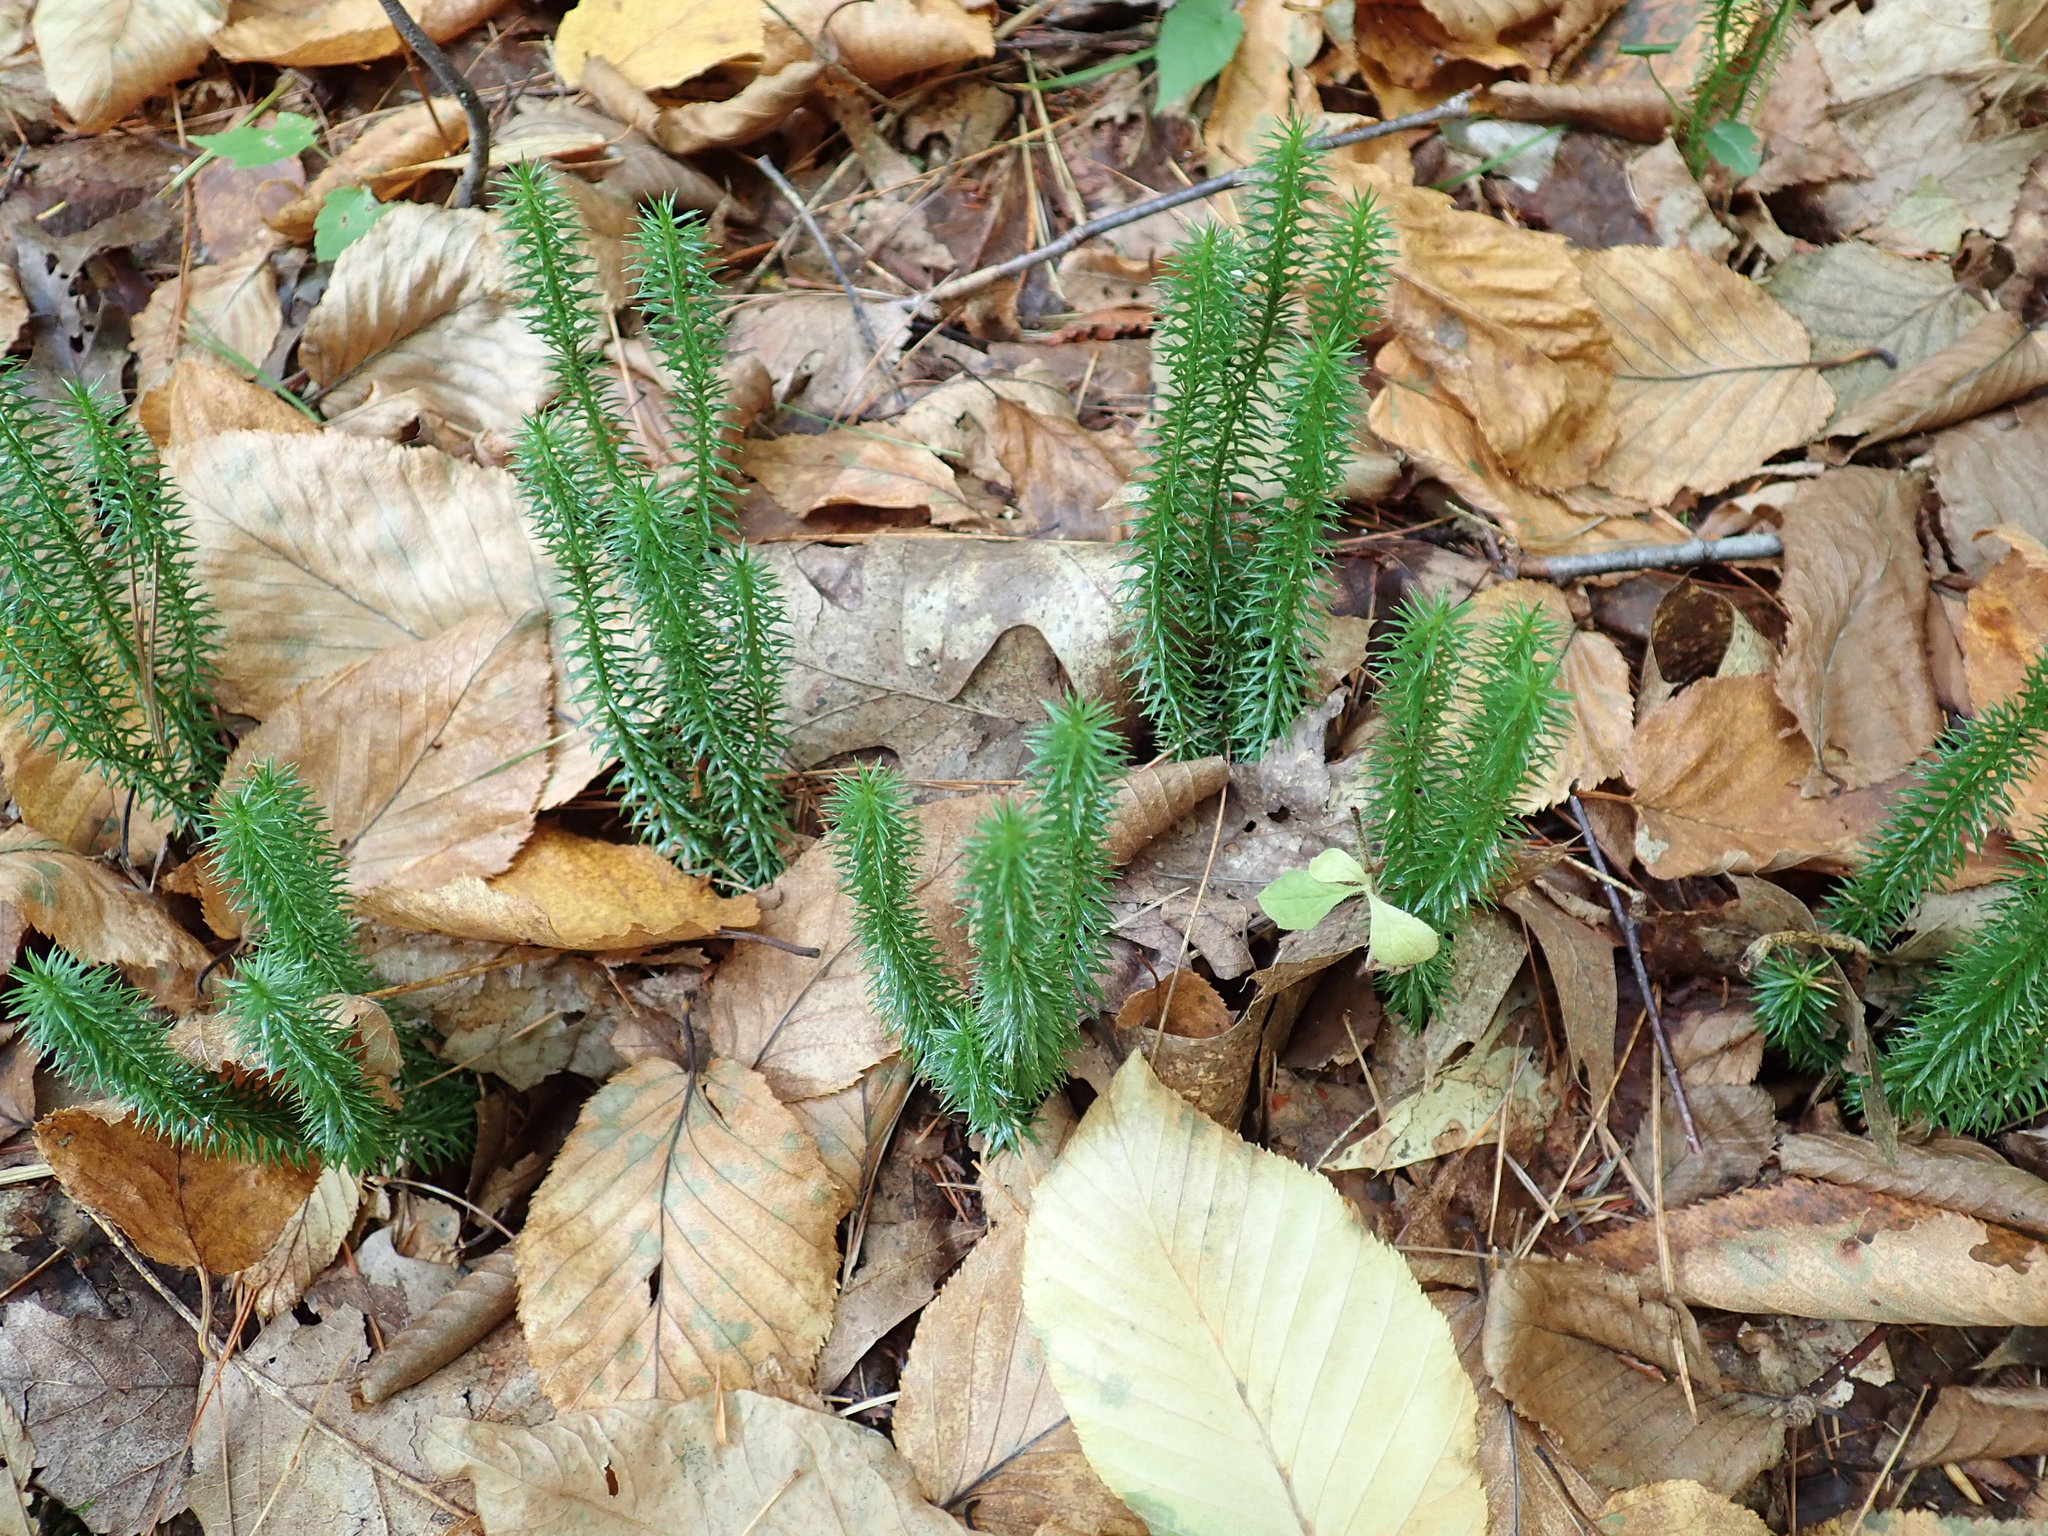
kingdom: Plantae
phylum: Tracheophyta
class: Lycopodiopsida
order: Lycopodiales
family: Lycopodiaceae
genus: Spinulum
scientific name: Spinulum annotinum
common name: Interrupted club-moss
